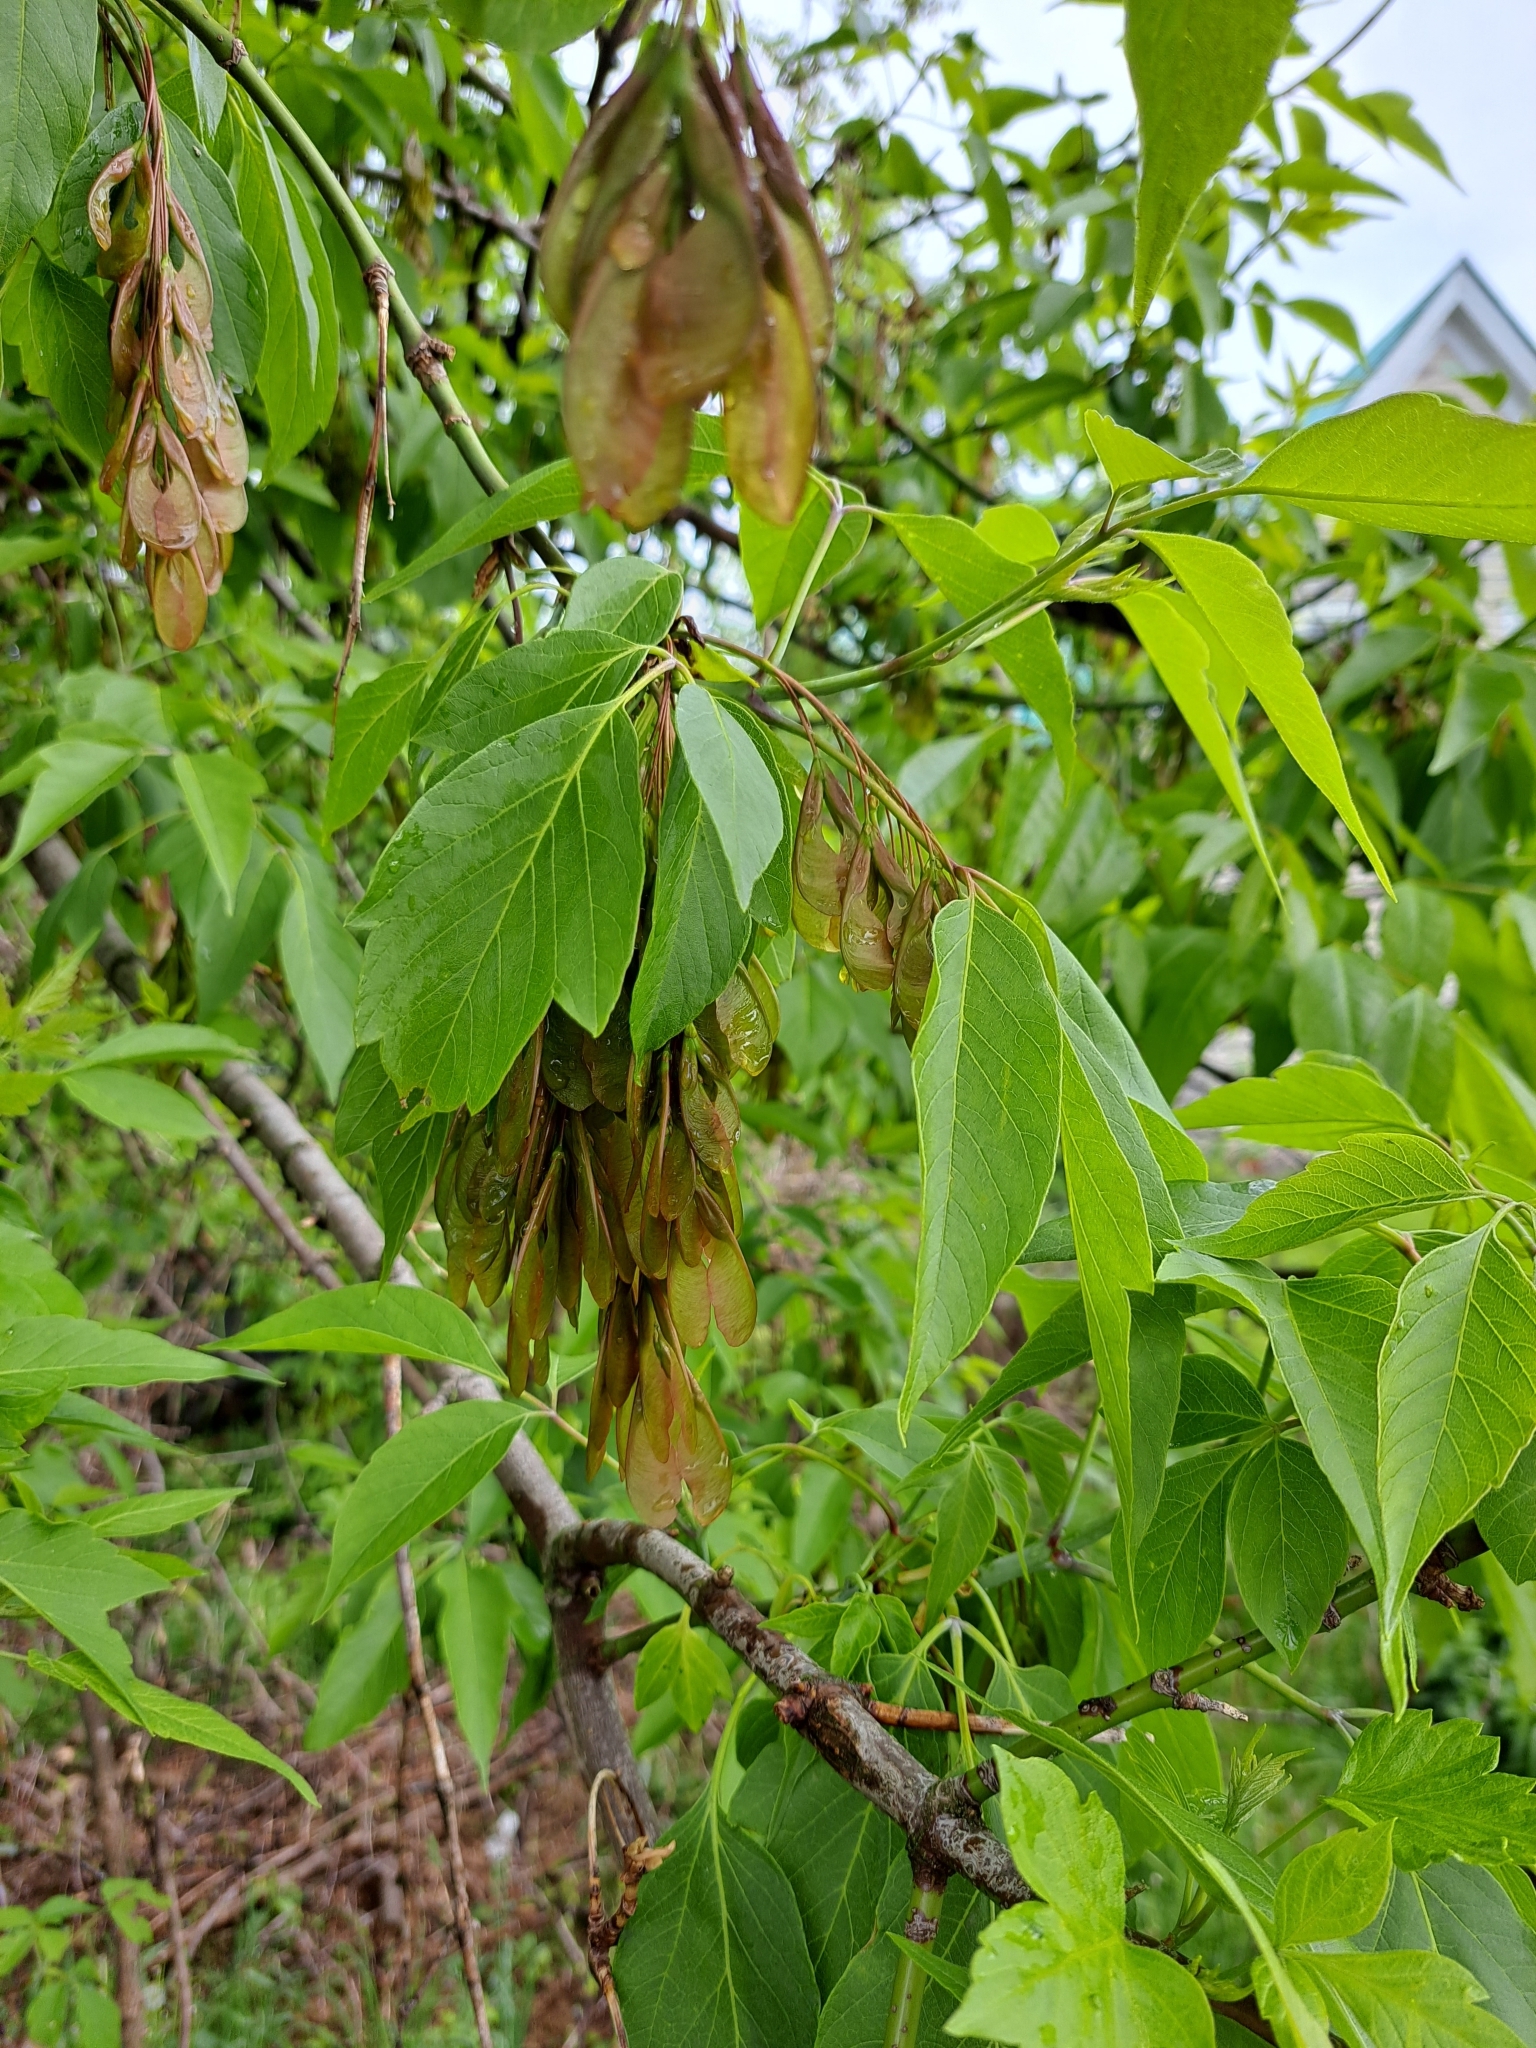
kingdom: Plantae
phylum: Tracheophyta
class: Magnoliopsida
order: Sapindales
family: Sapindaceae
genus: Acer
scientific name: Acer negundo
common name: Ashleaf maple
